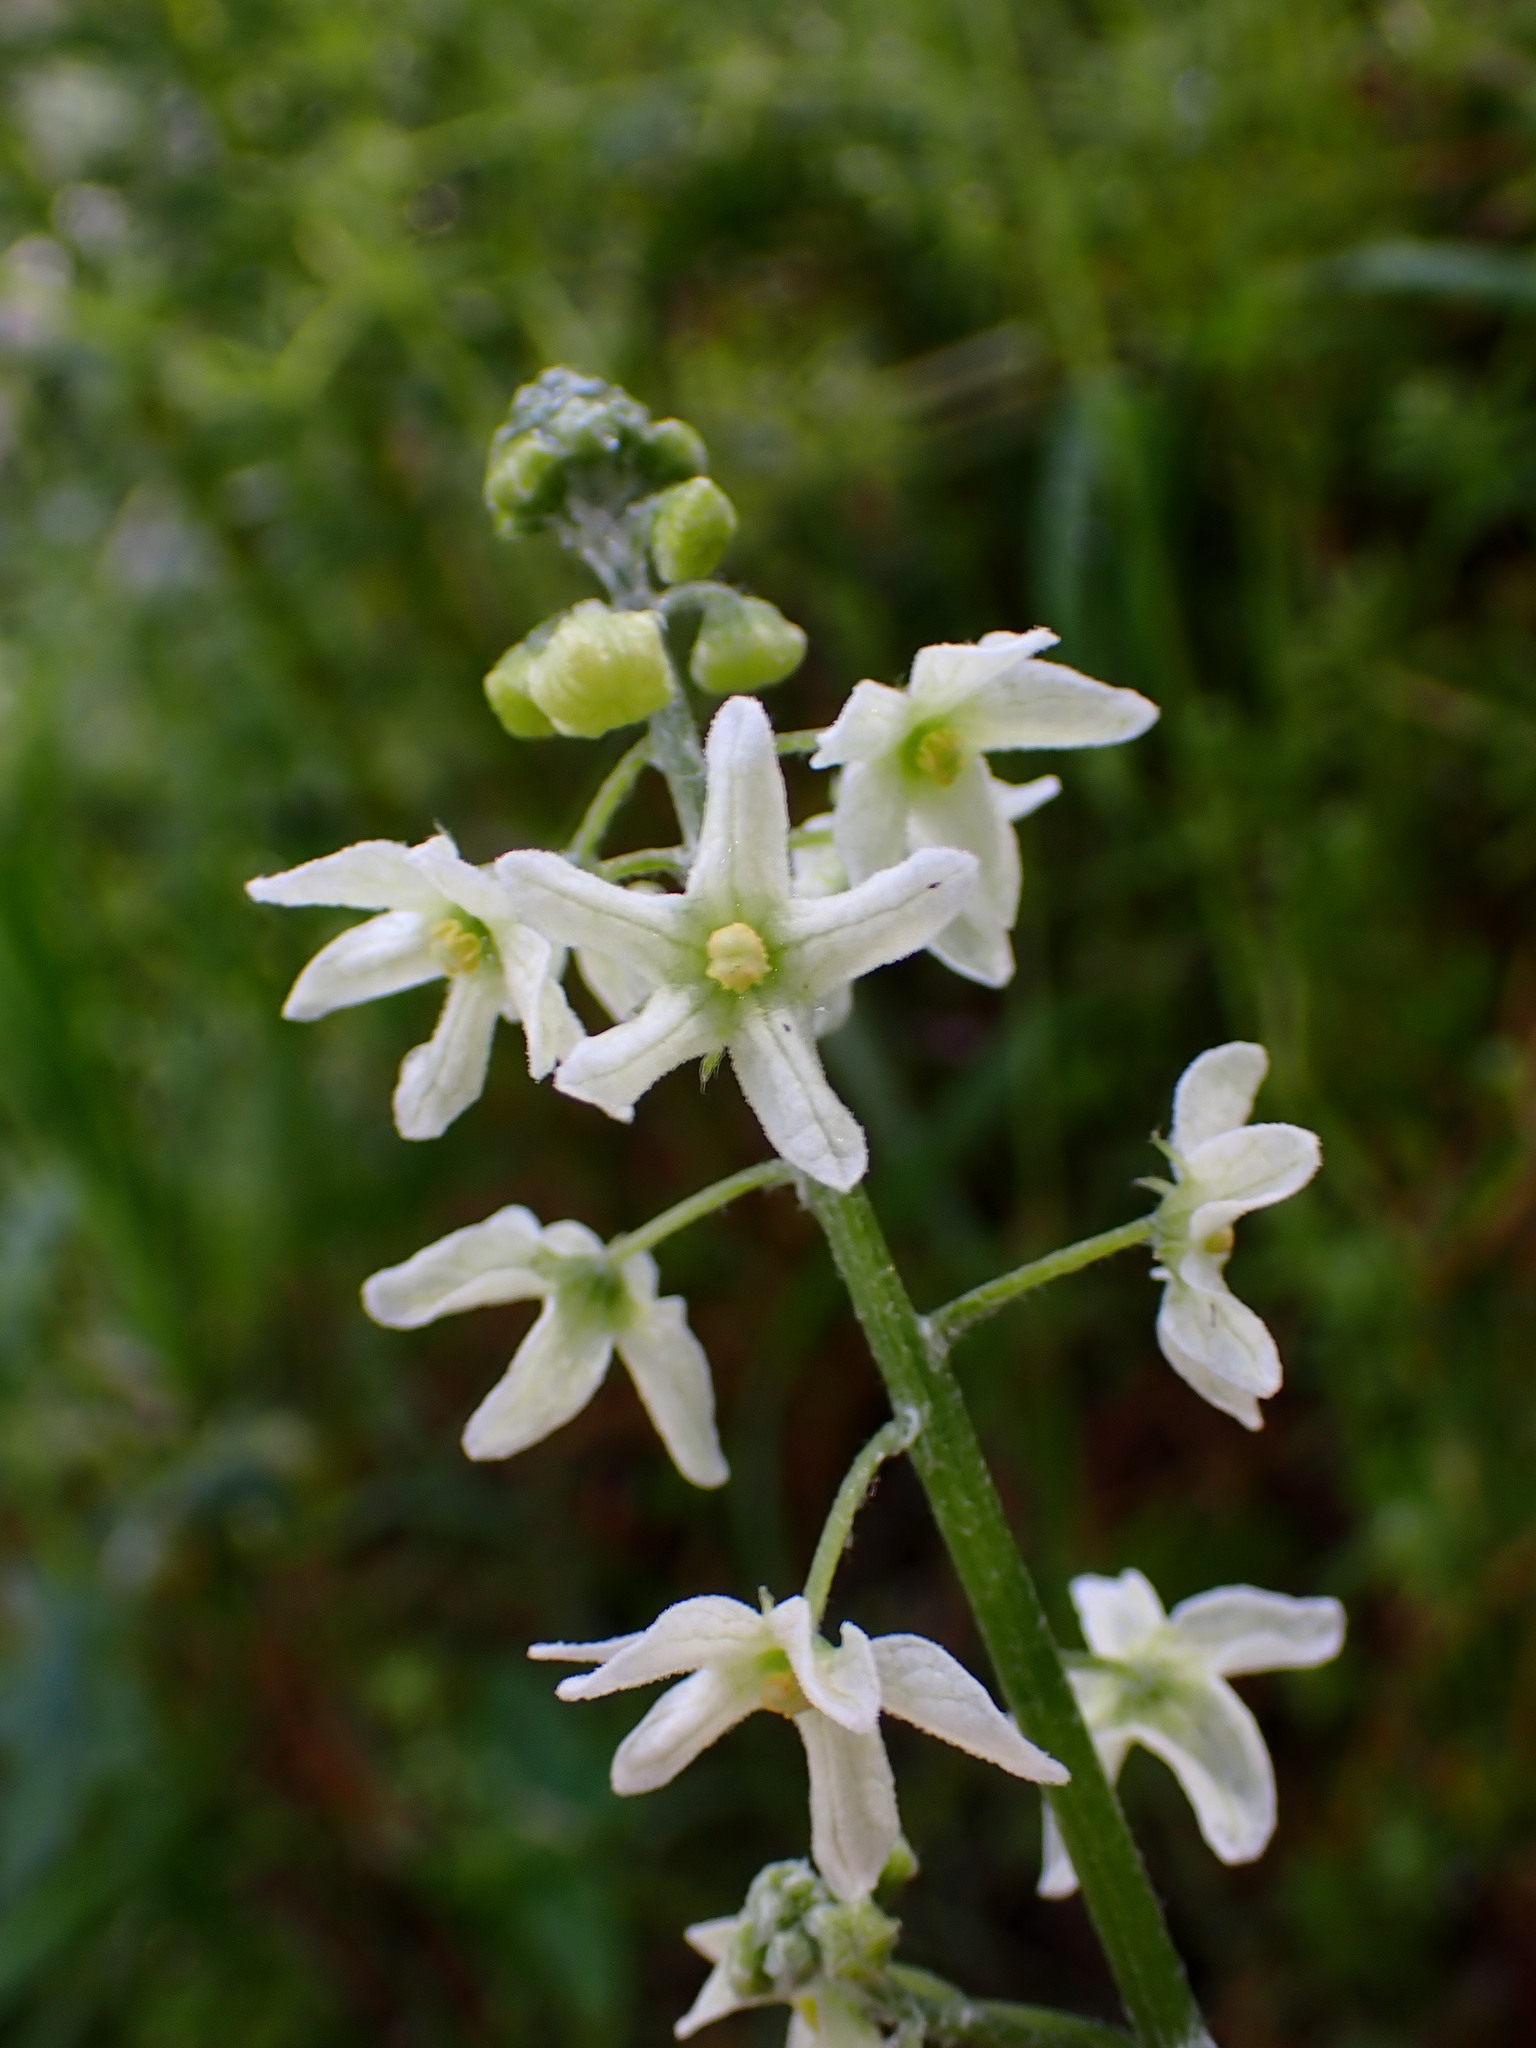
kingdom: Plantae
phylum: Tracheophyta
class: Magnoliopsida
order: Cucurbitales
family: Cucurbitaceae
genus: Marah
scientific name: Marah fabacea
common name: California manroot
